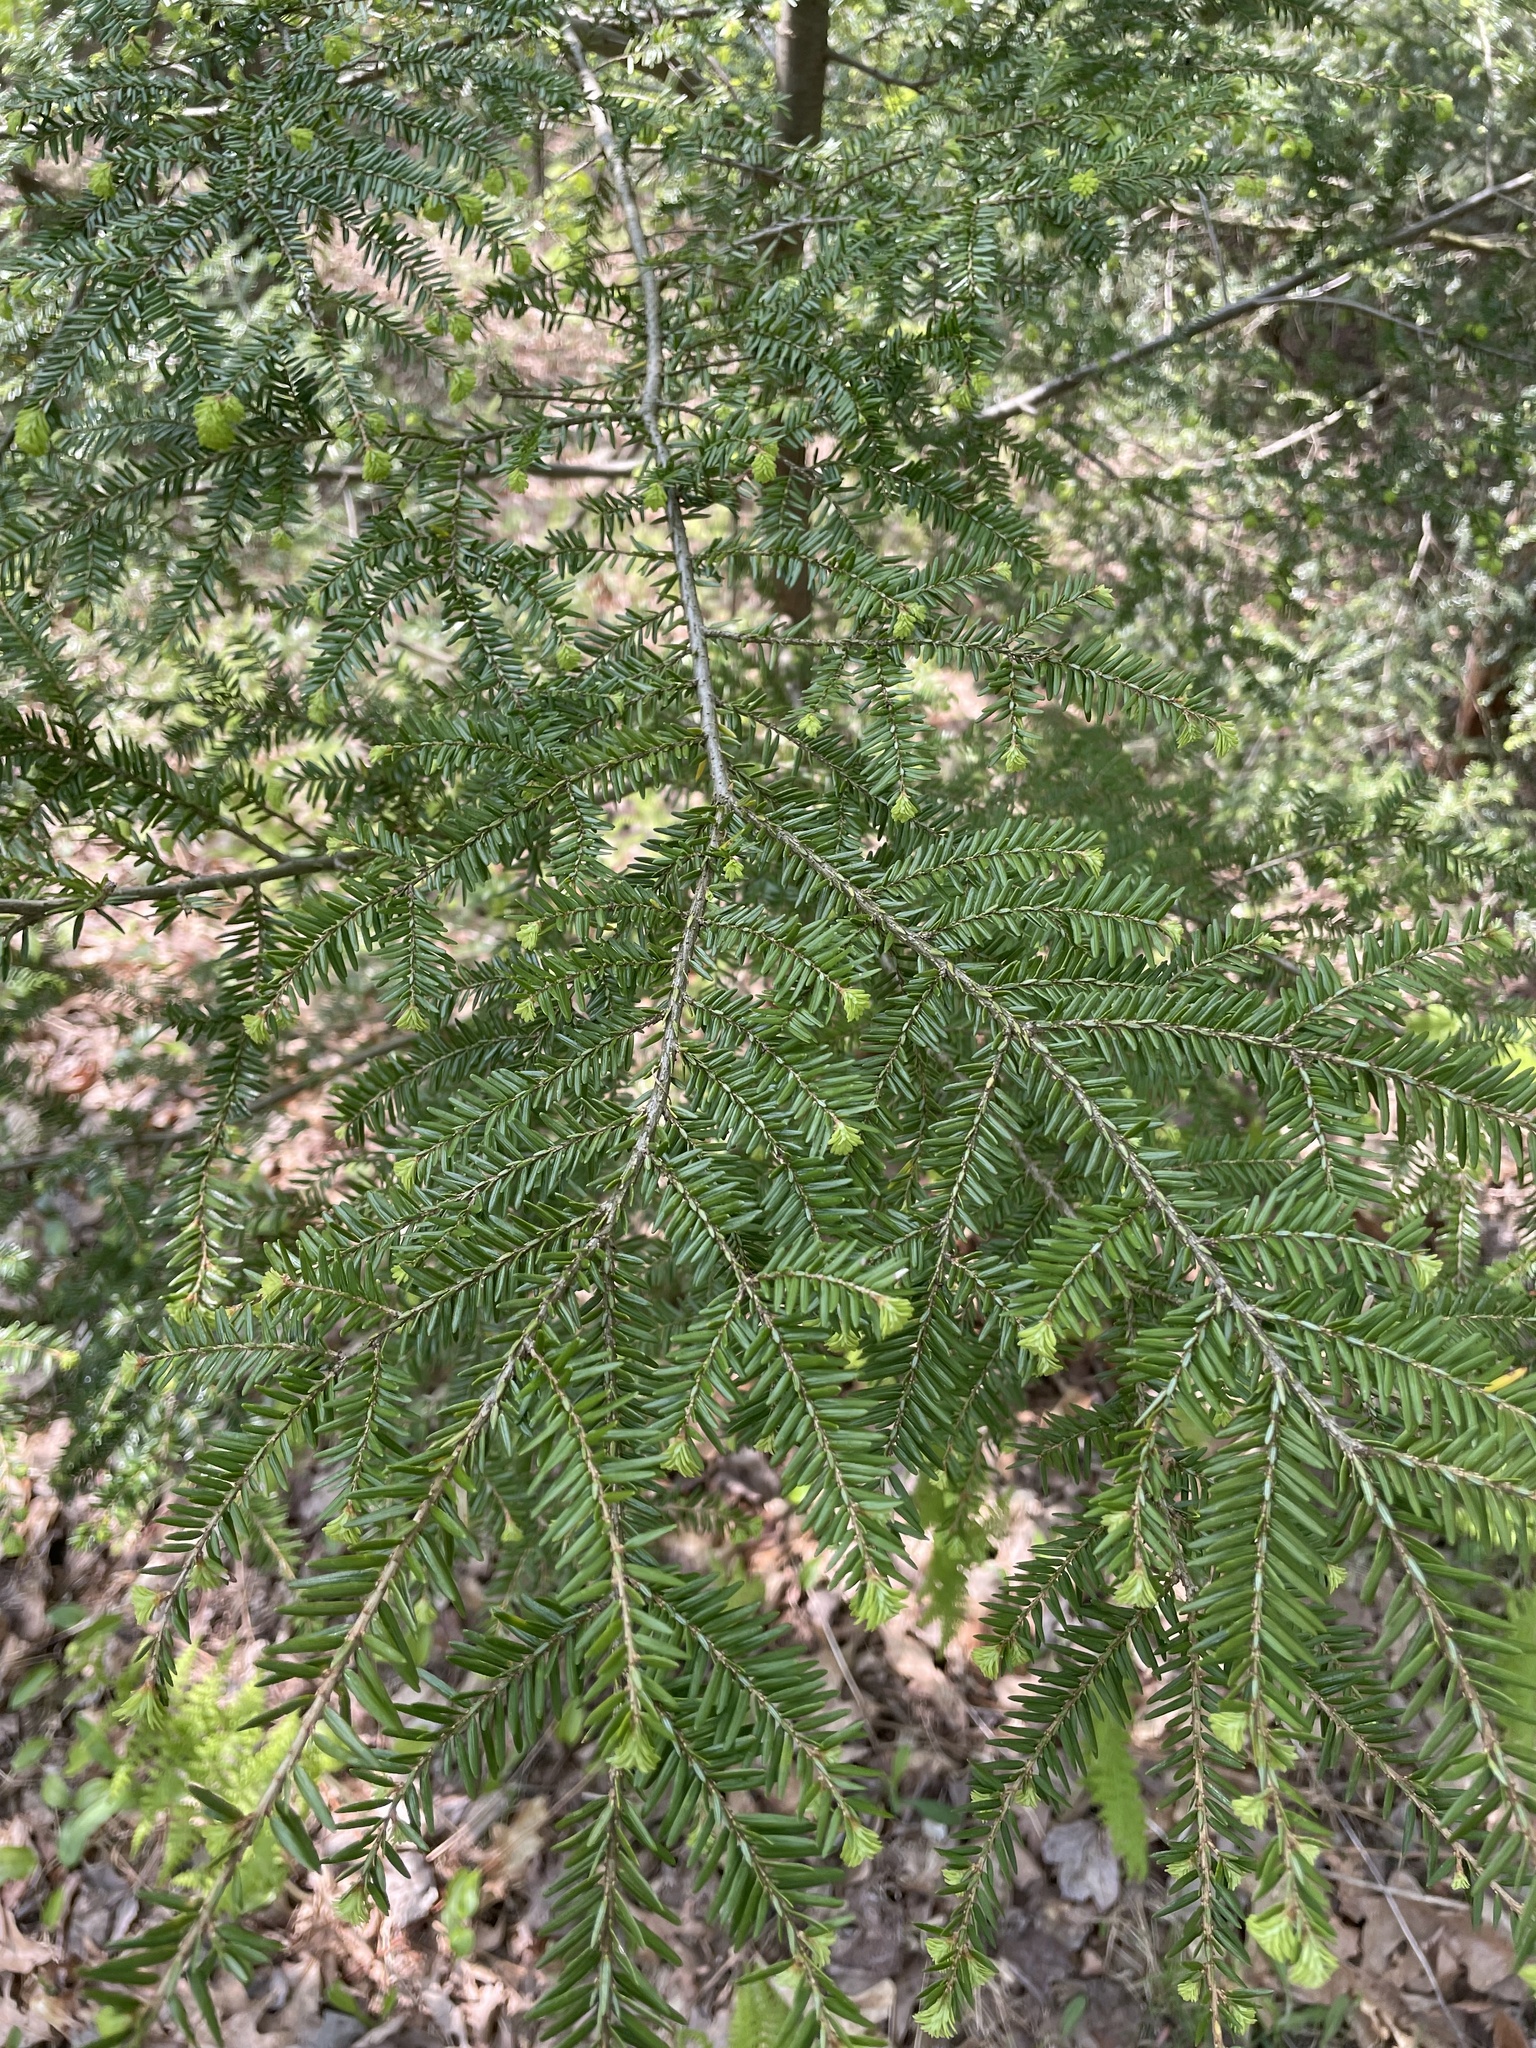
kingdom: Plantae
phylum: Tracheophyta
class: Pinopsida
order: Pinales
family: Pinaceae
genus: Tsuga
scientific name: Tsuga canadensis
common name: Eastern hemlock
